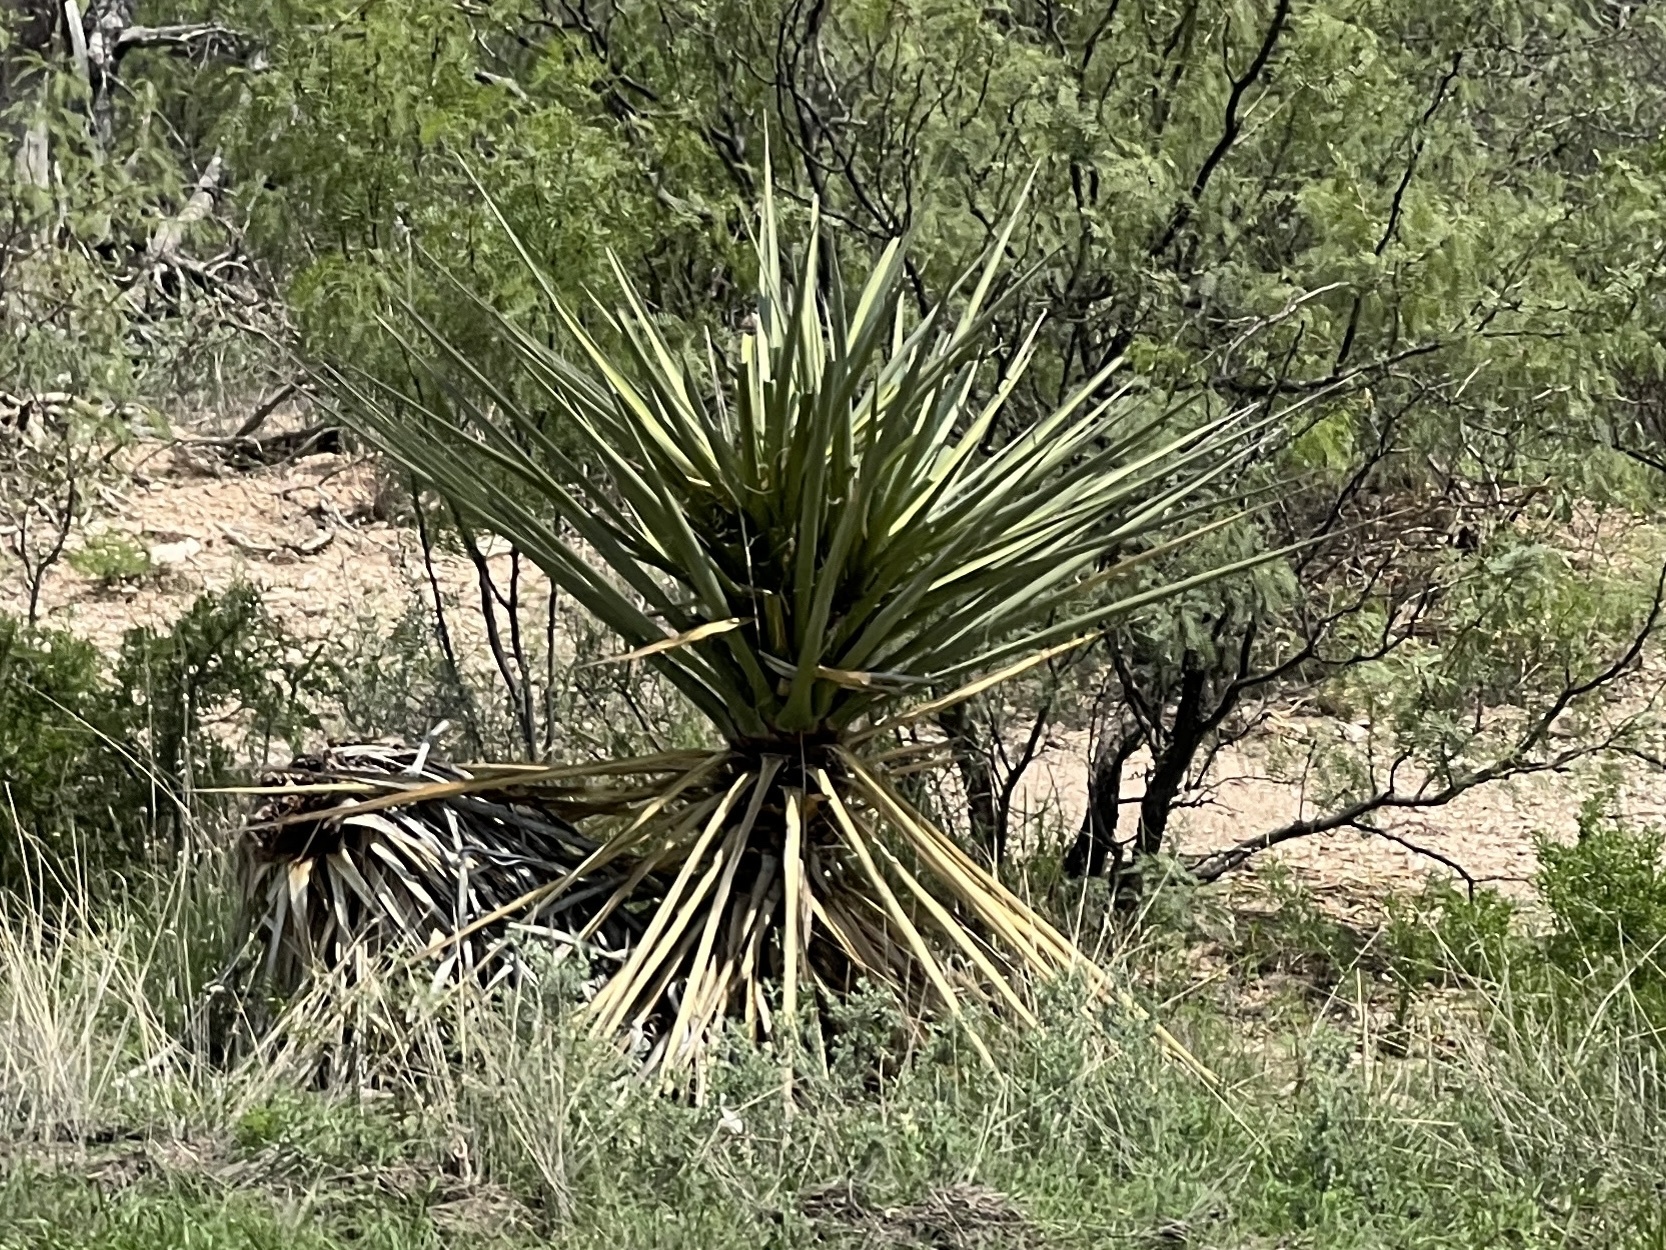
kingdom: Plantae
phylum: Tracheophyta
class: Liliopsida
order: Asparagales
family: Asparagaceae
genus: Yucca
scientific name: Yucca treculiana
